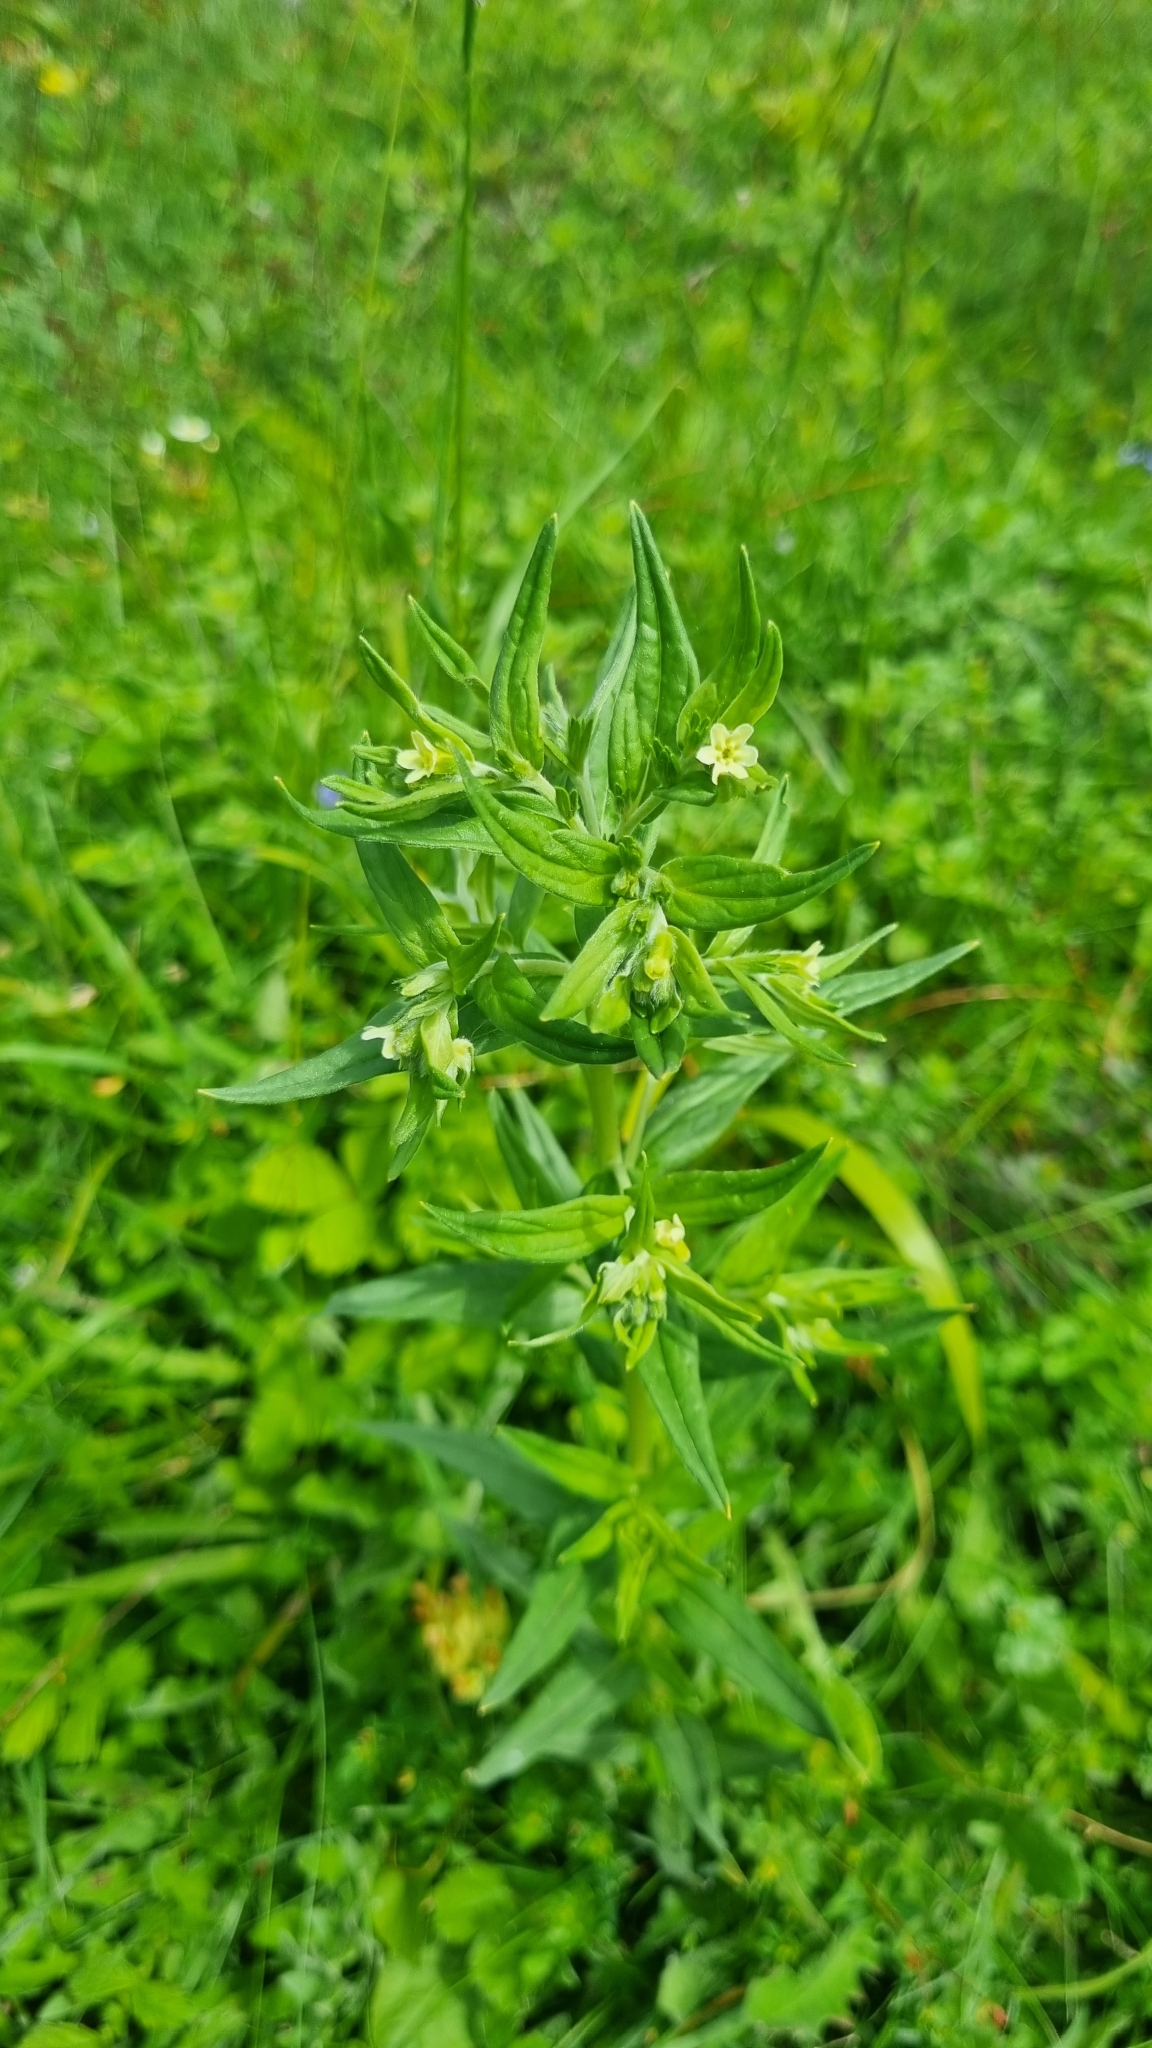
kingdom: Plantae
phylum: Tracheophyta
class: Magnoliopsida
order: Boraginales
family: Boraginaceae
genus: Lithospermum
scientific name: Lithospermum officinale
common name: Common gromwell
